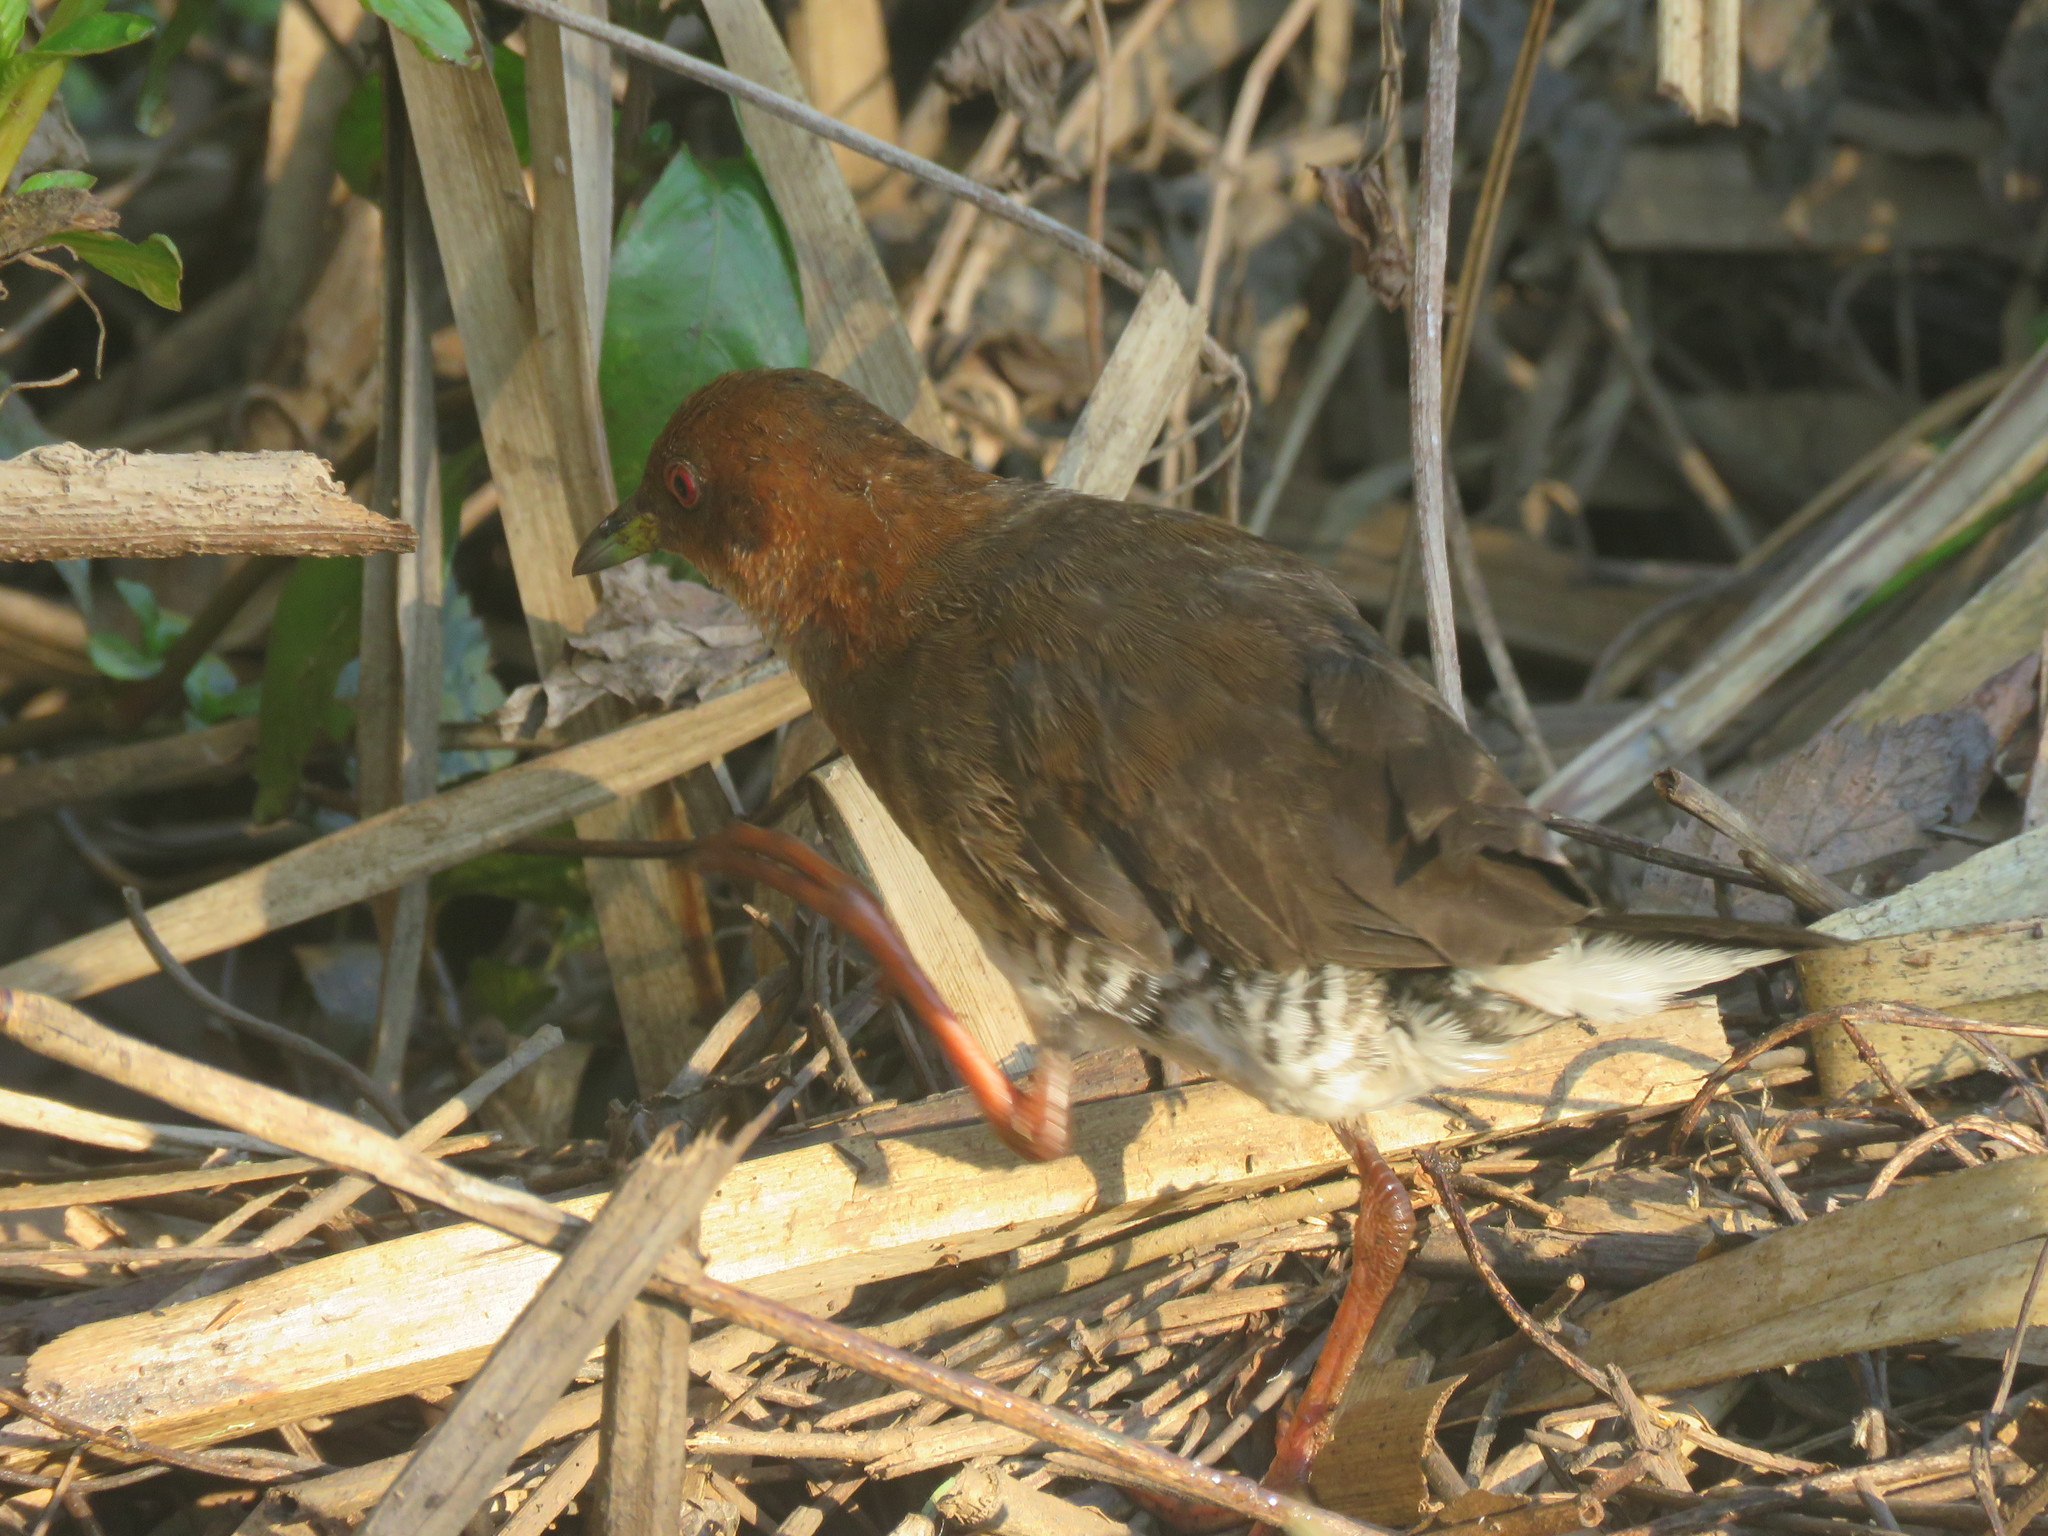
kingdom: Animalia
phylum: Chordata
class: Aves
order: Gruiformes
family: Rallidae
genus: Laterallus
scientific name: Laterallus leucopyrrhus
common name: Red-and-white crake
